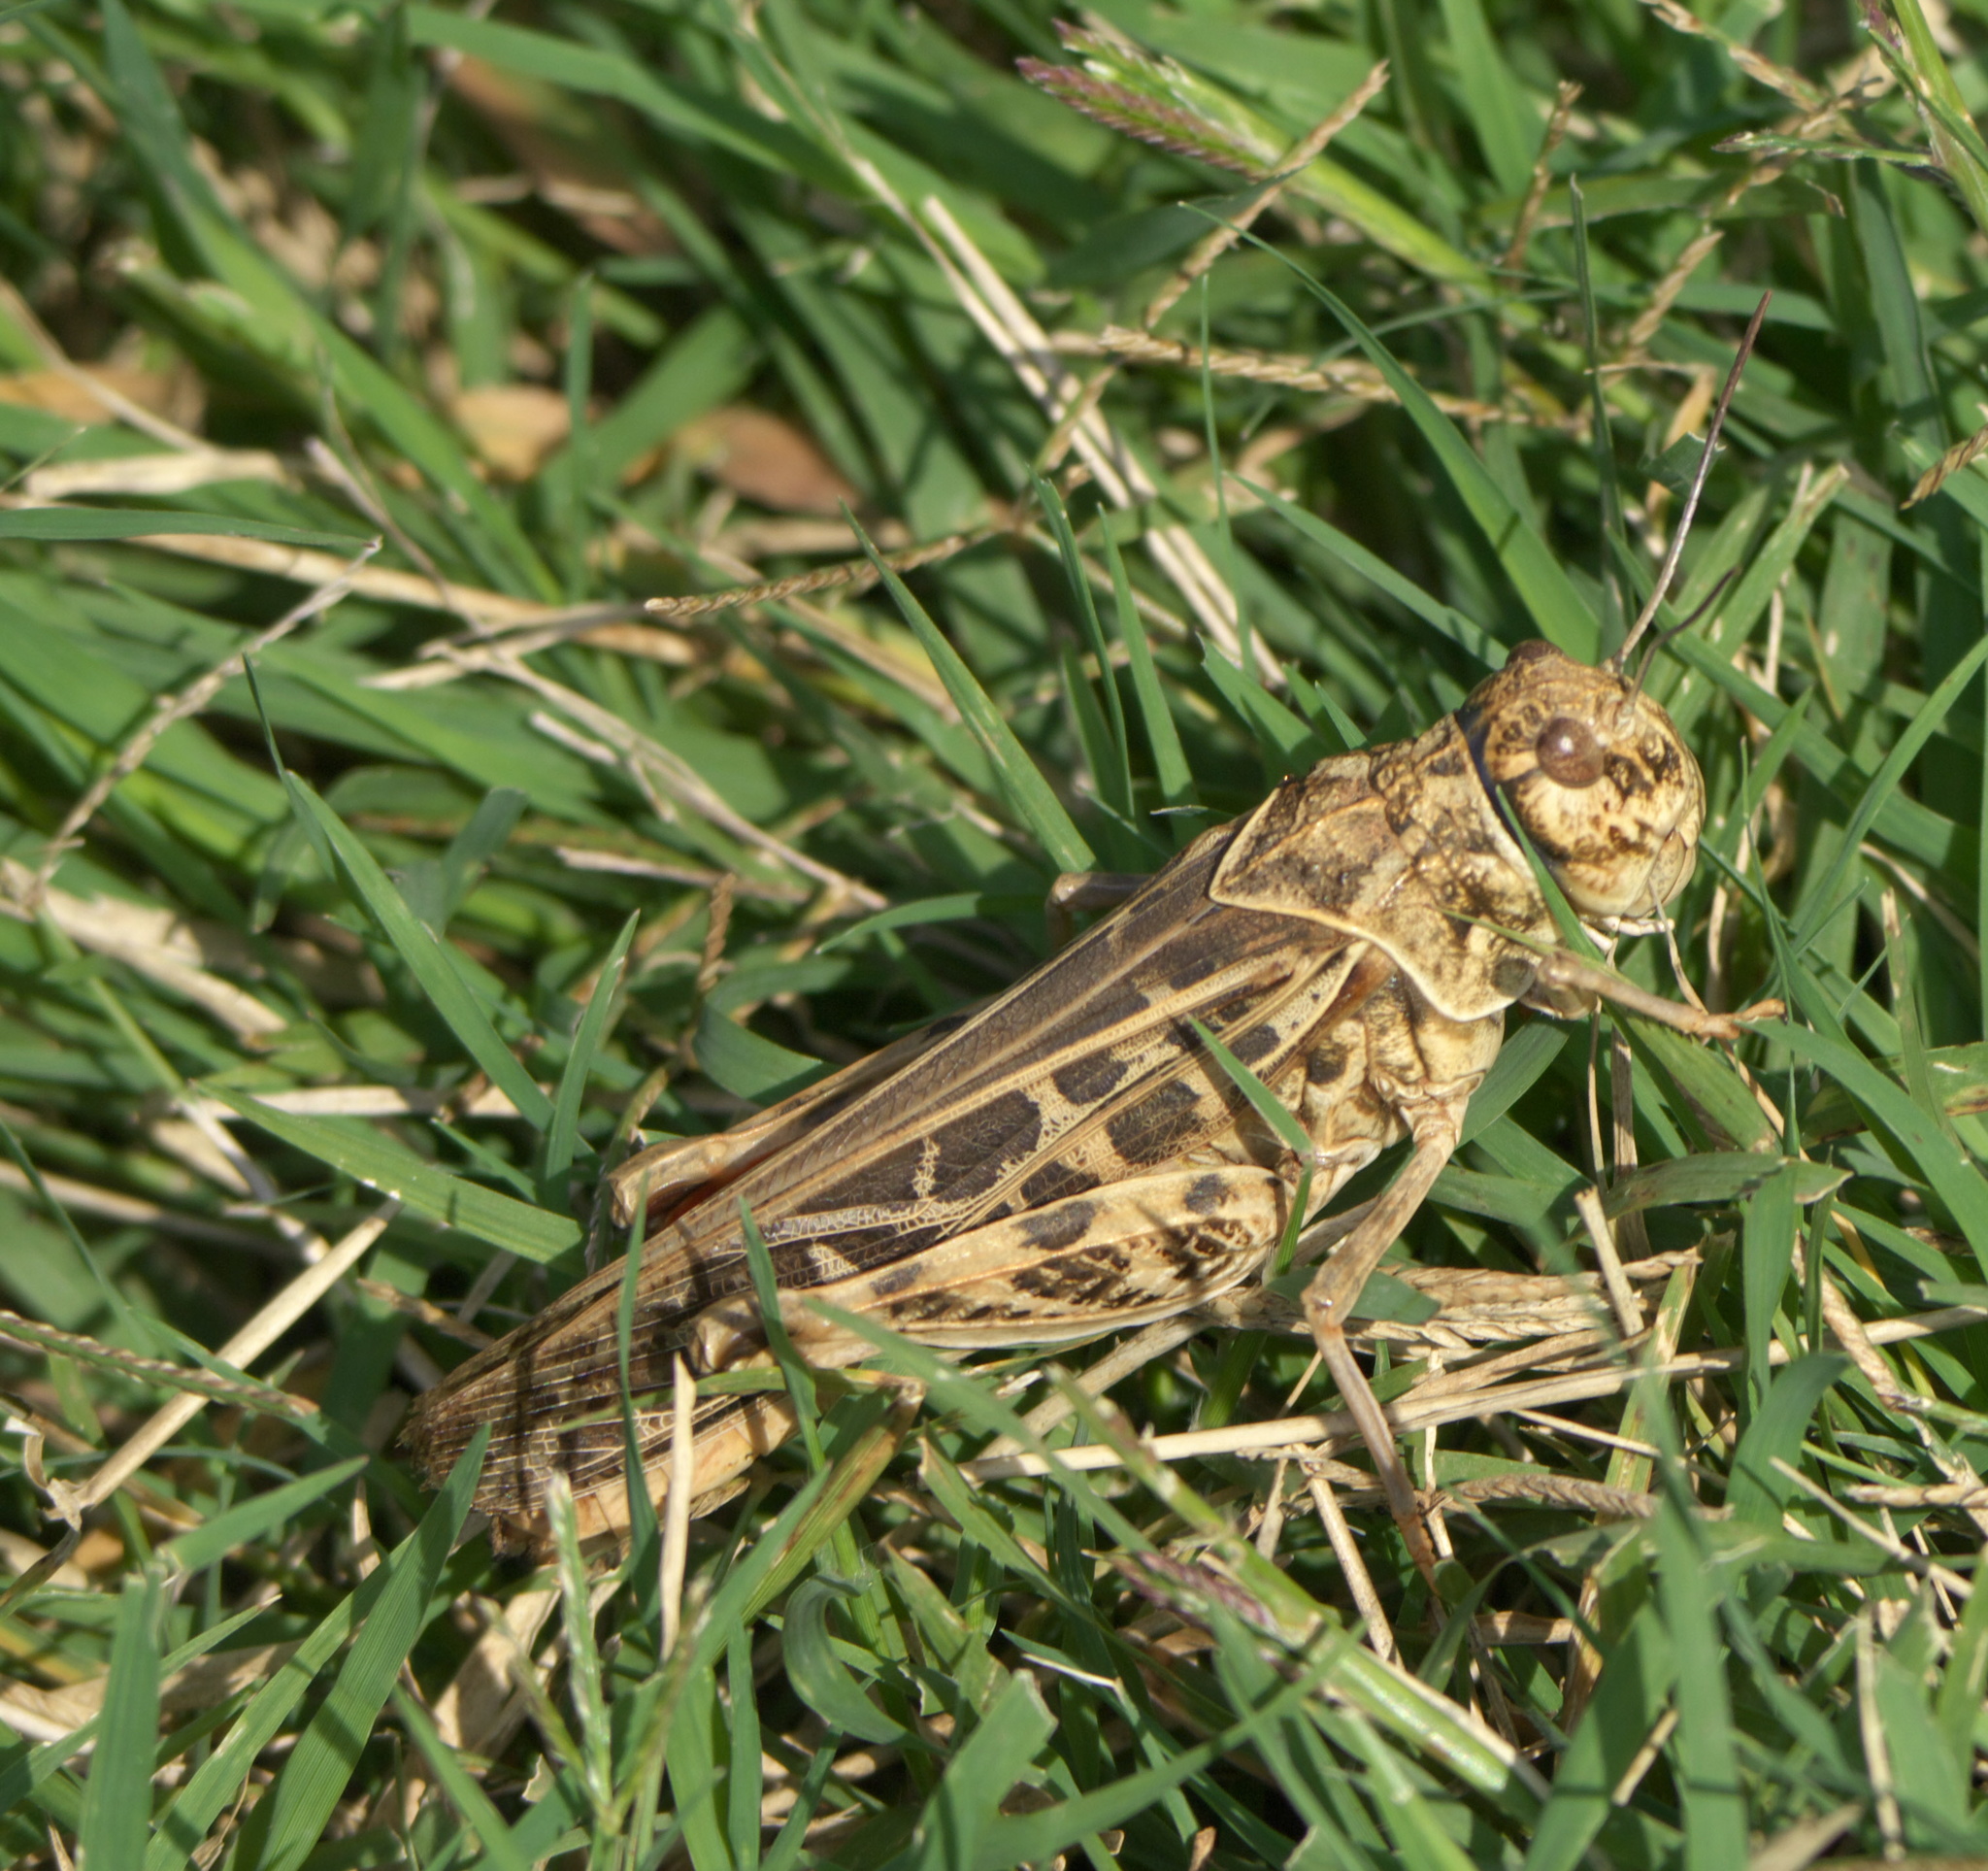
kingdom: Animalia
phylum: Arthropoda
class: Insecta
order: Orthoptera
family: Acrididae
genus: Xanthippus
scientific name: Xanthippus corallipes
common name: Redshanked grasshopper
